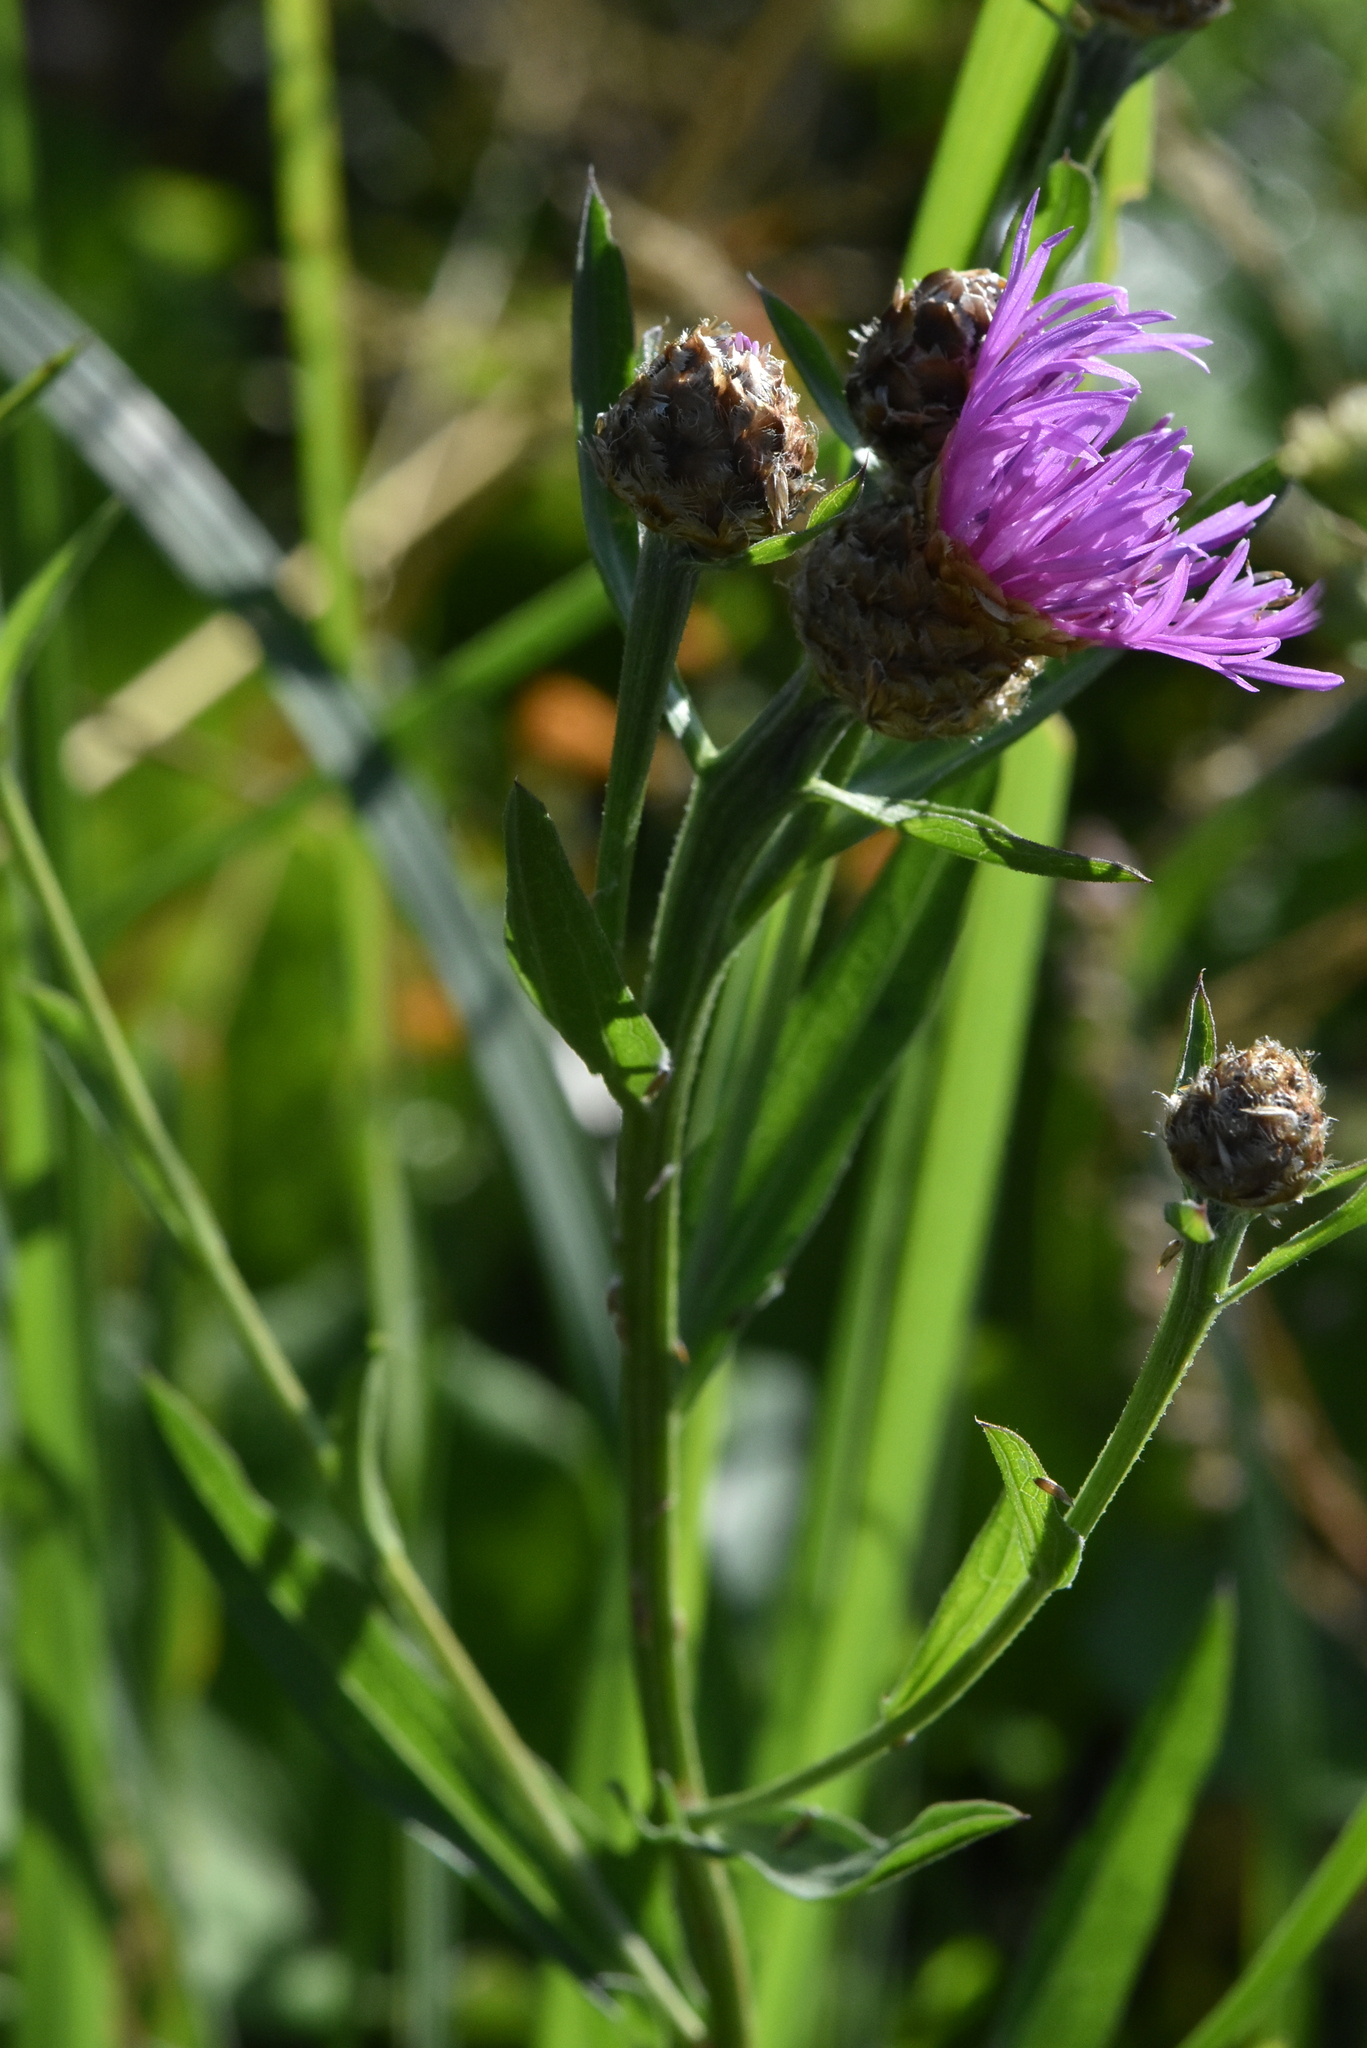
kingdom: Plantae
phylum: Tracheophyta
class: Magnoliopsida
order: Asterales
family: Asteraceae
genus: Centaurea
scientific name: Centaurea jacea
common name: Brown knapweed
